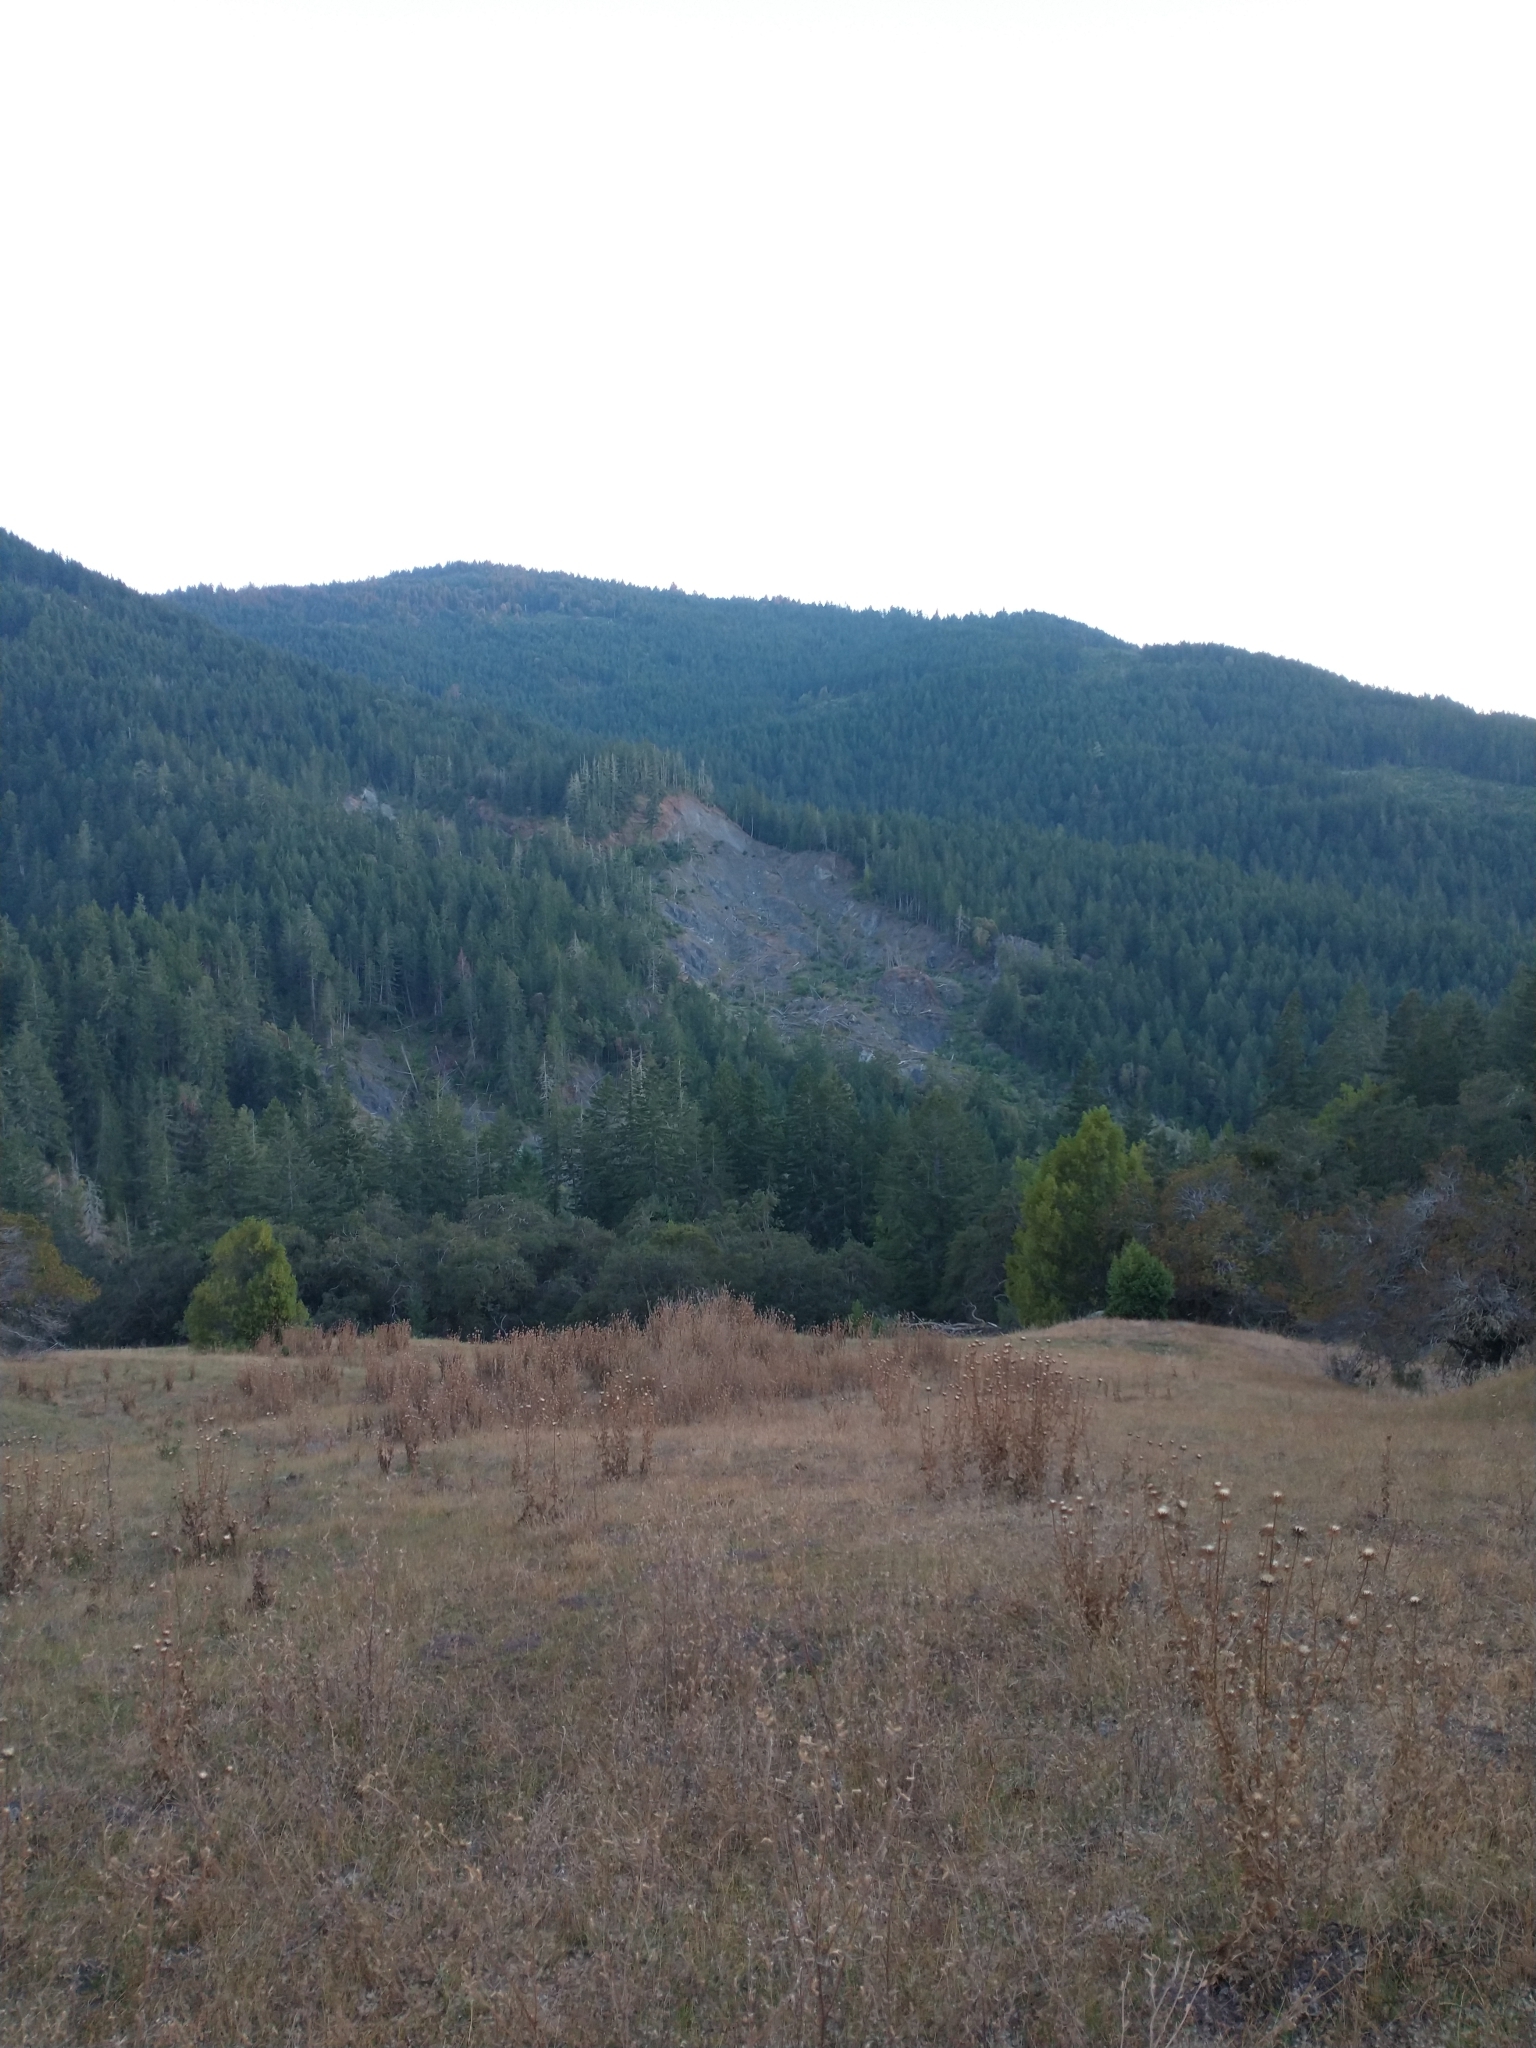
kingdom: Plantae
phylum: Tracheophyta
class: Pinopsida
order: Pinales
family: Pinaceae
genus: Pseudotsuga
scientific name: Pseudotsuga menziesii
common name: Douglas fir
